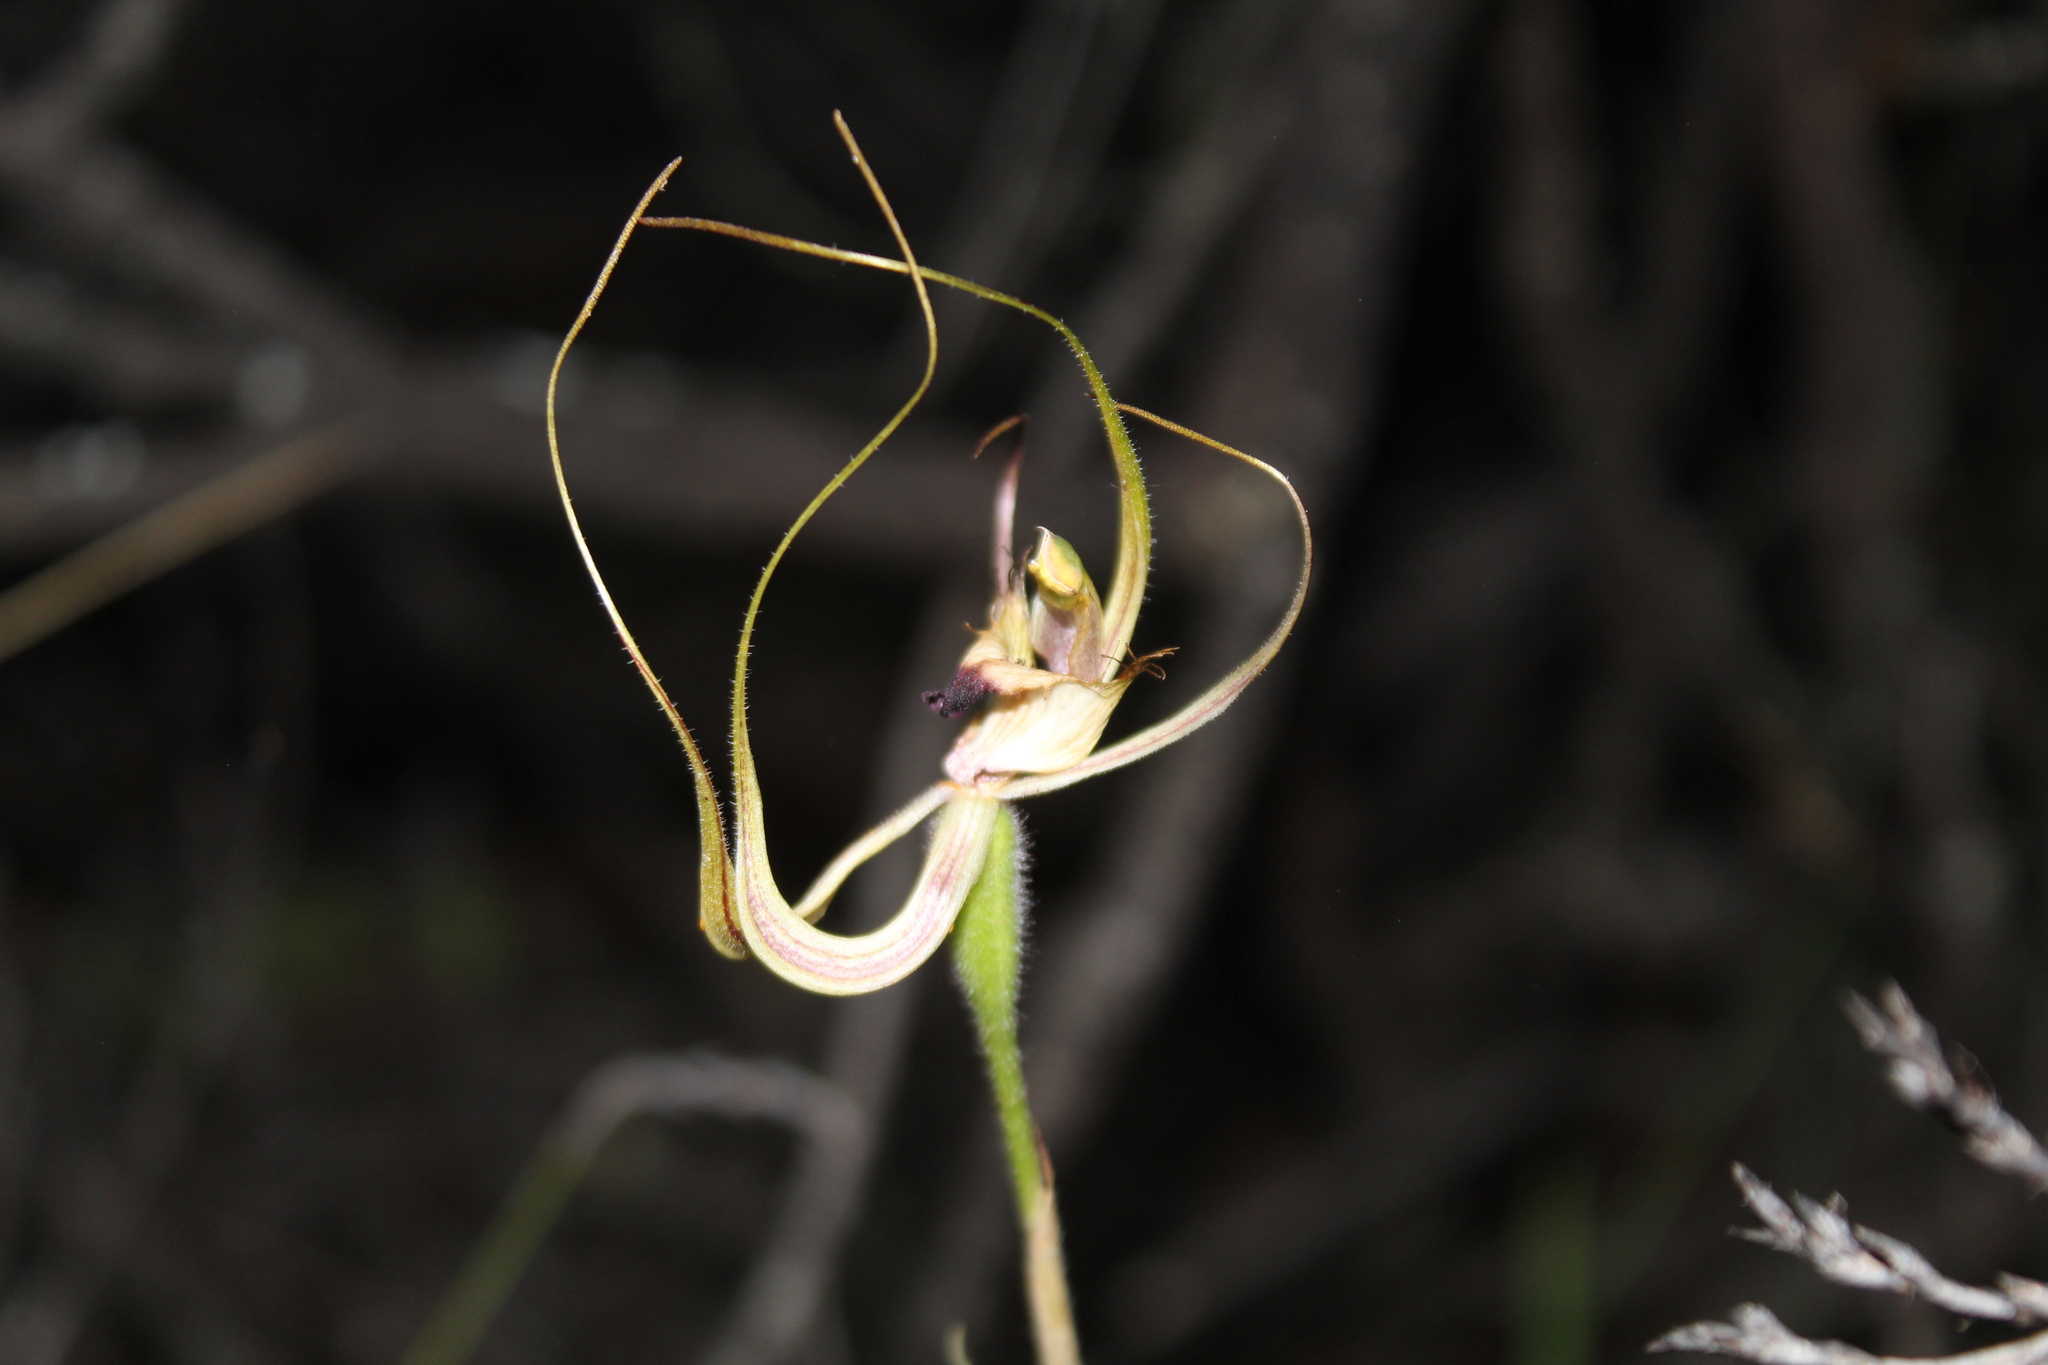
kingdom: Plantae
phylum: Tracheophyta
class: Liliopsida
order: Asparagales
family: Orchidaceae
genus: Caladenia
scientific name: Caladenia falcata
